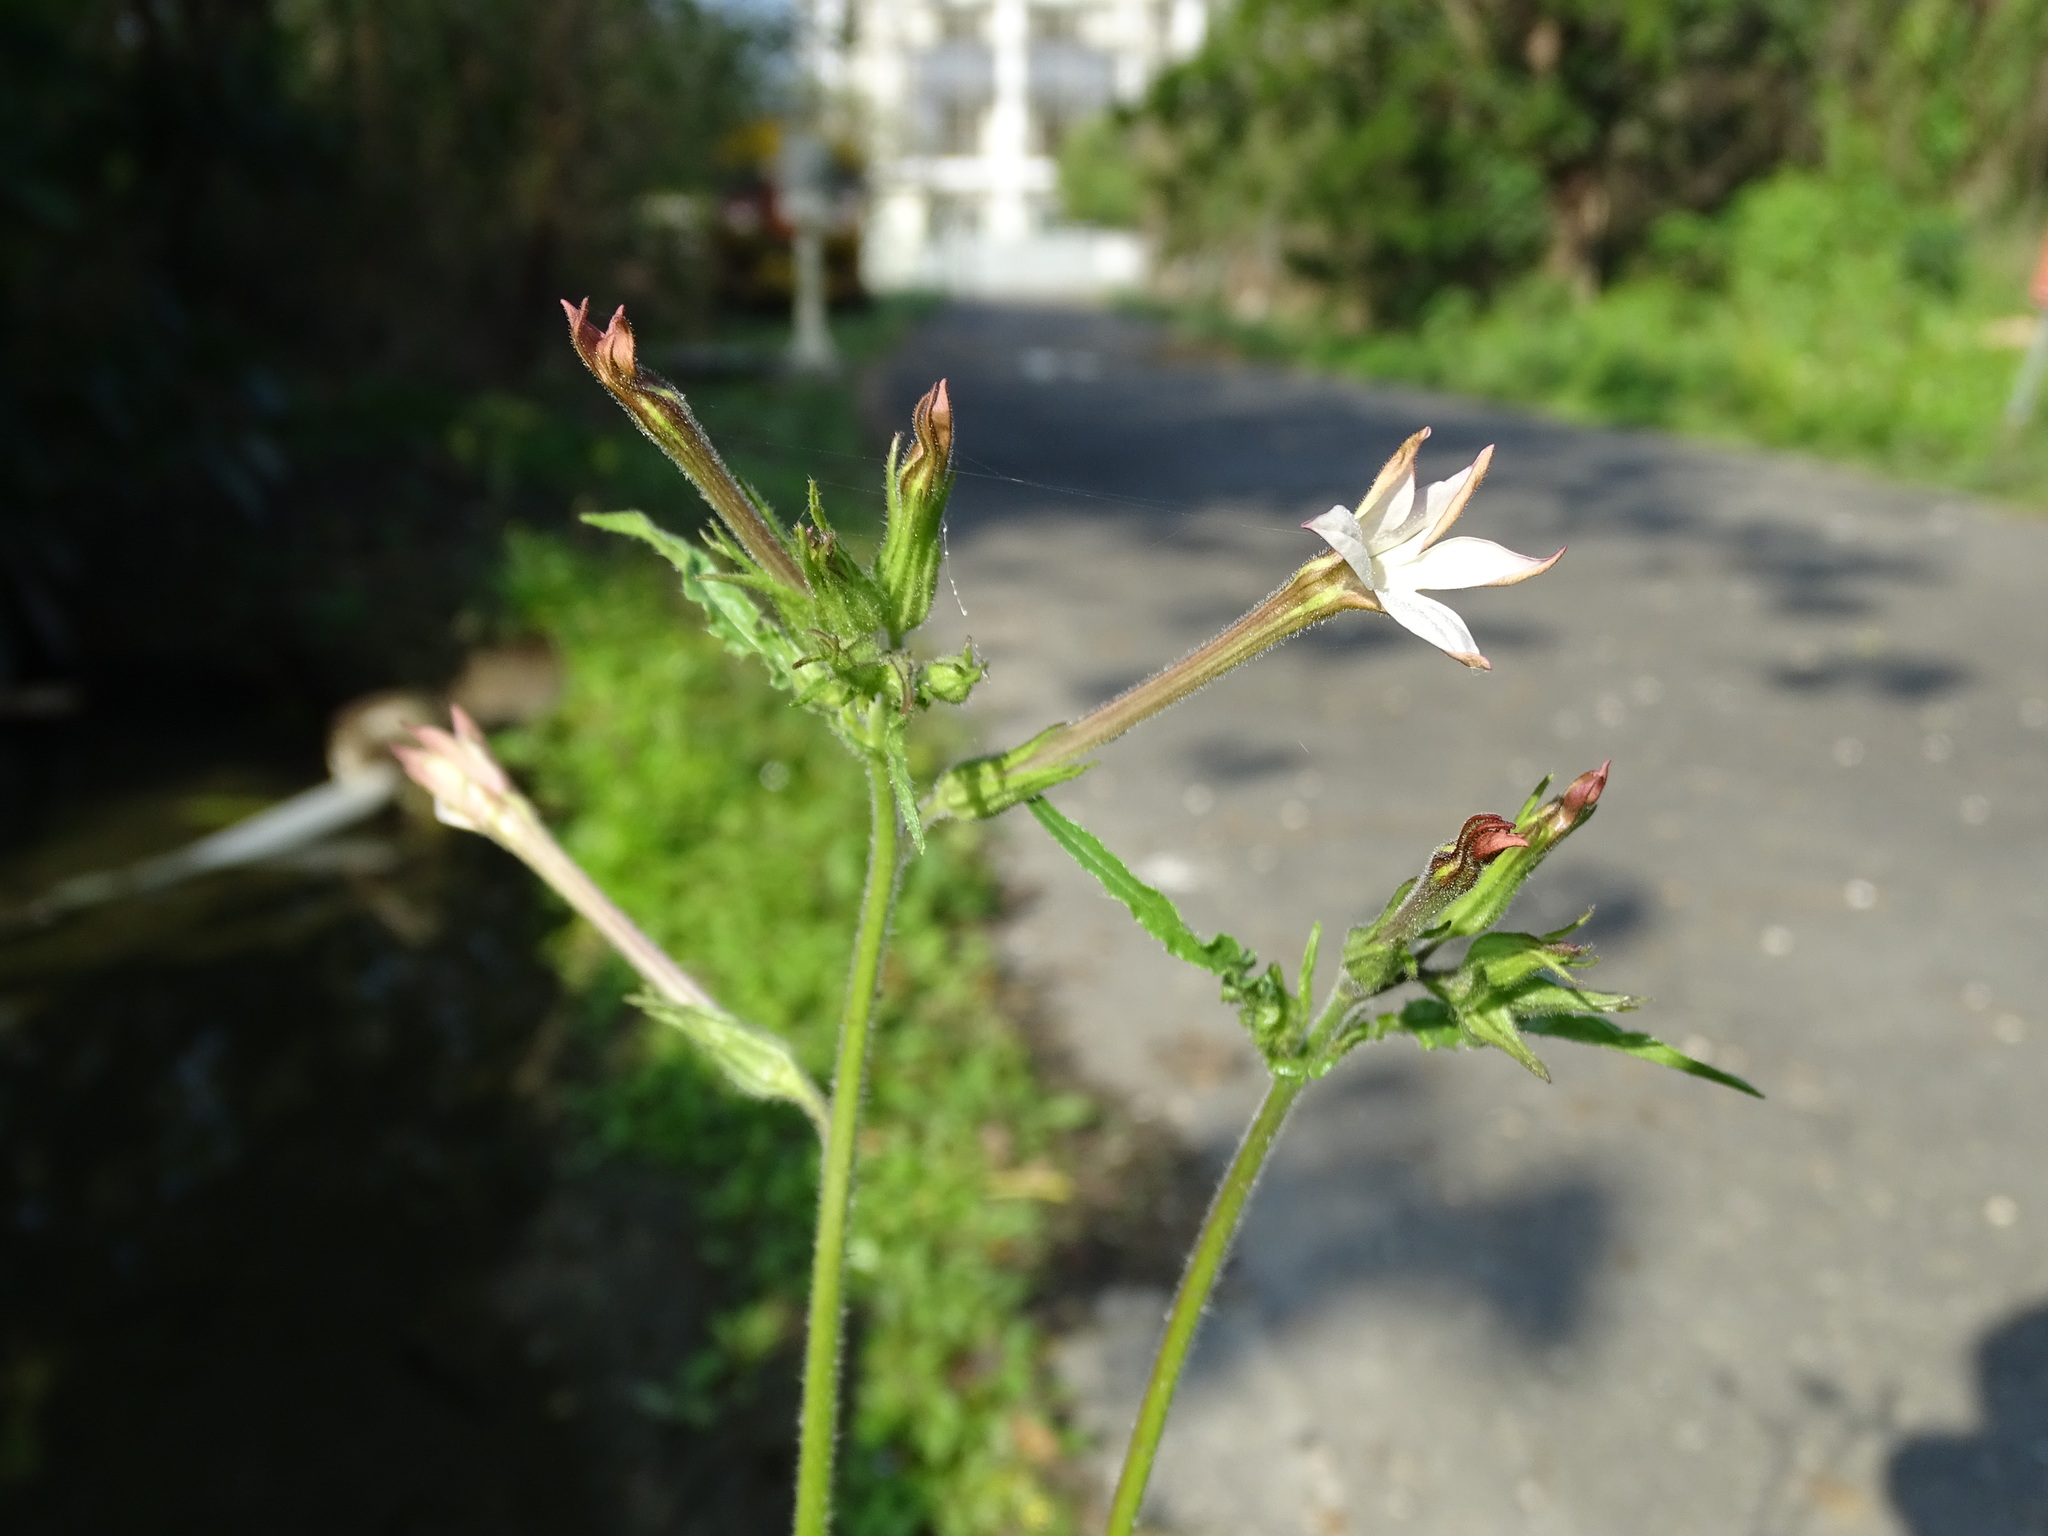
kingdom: Plantae
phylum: Tracheophyta
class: Magnoliopsida
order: Solanales
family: Solanaceae
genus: Nicotiana
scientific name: Nicotiana plumbaginifolia
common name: Tex-mex tobacco
